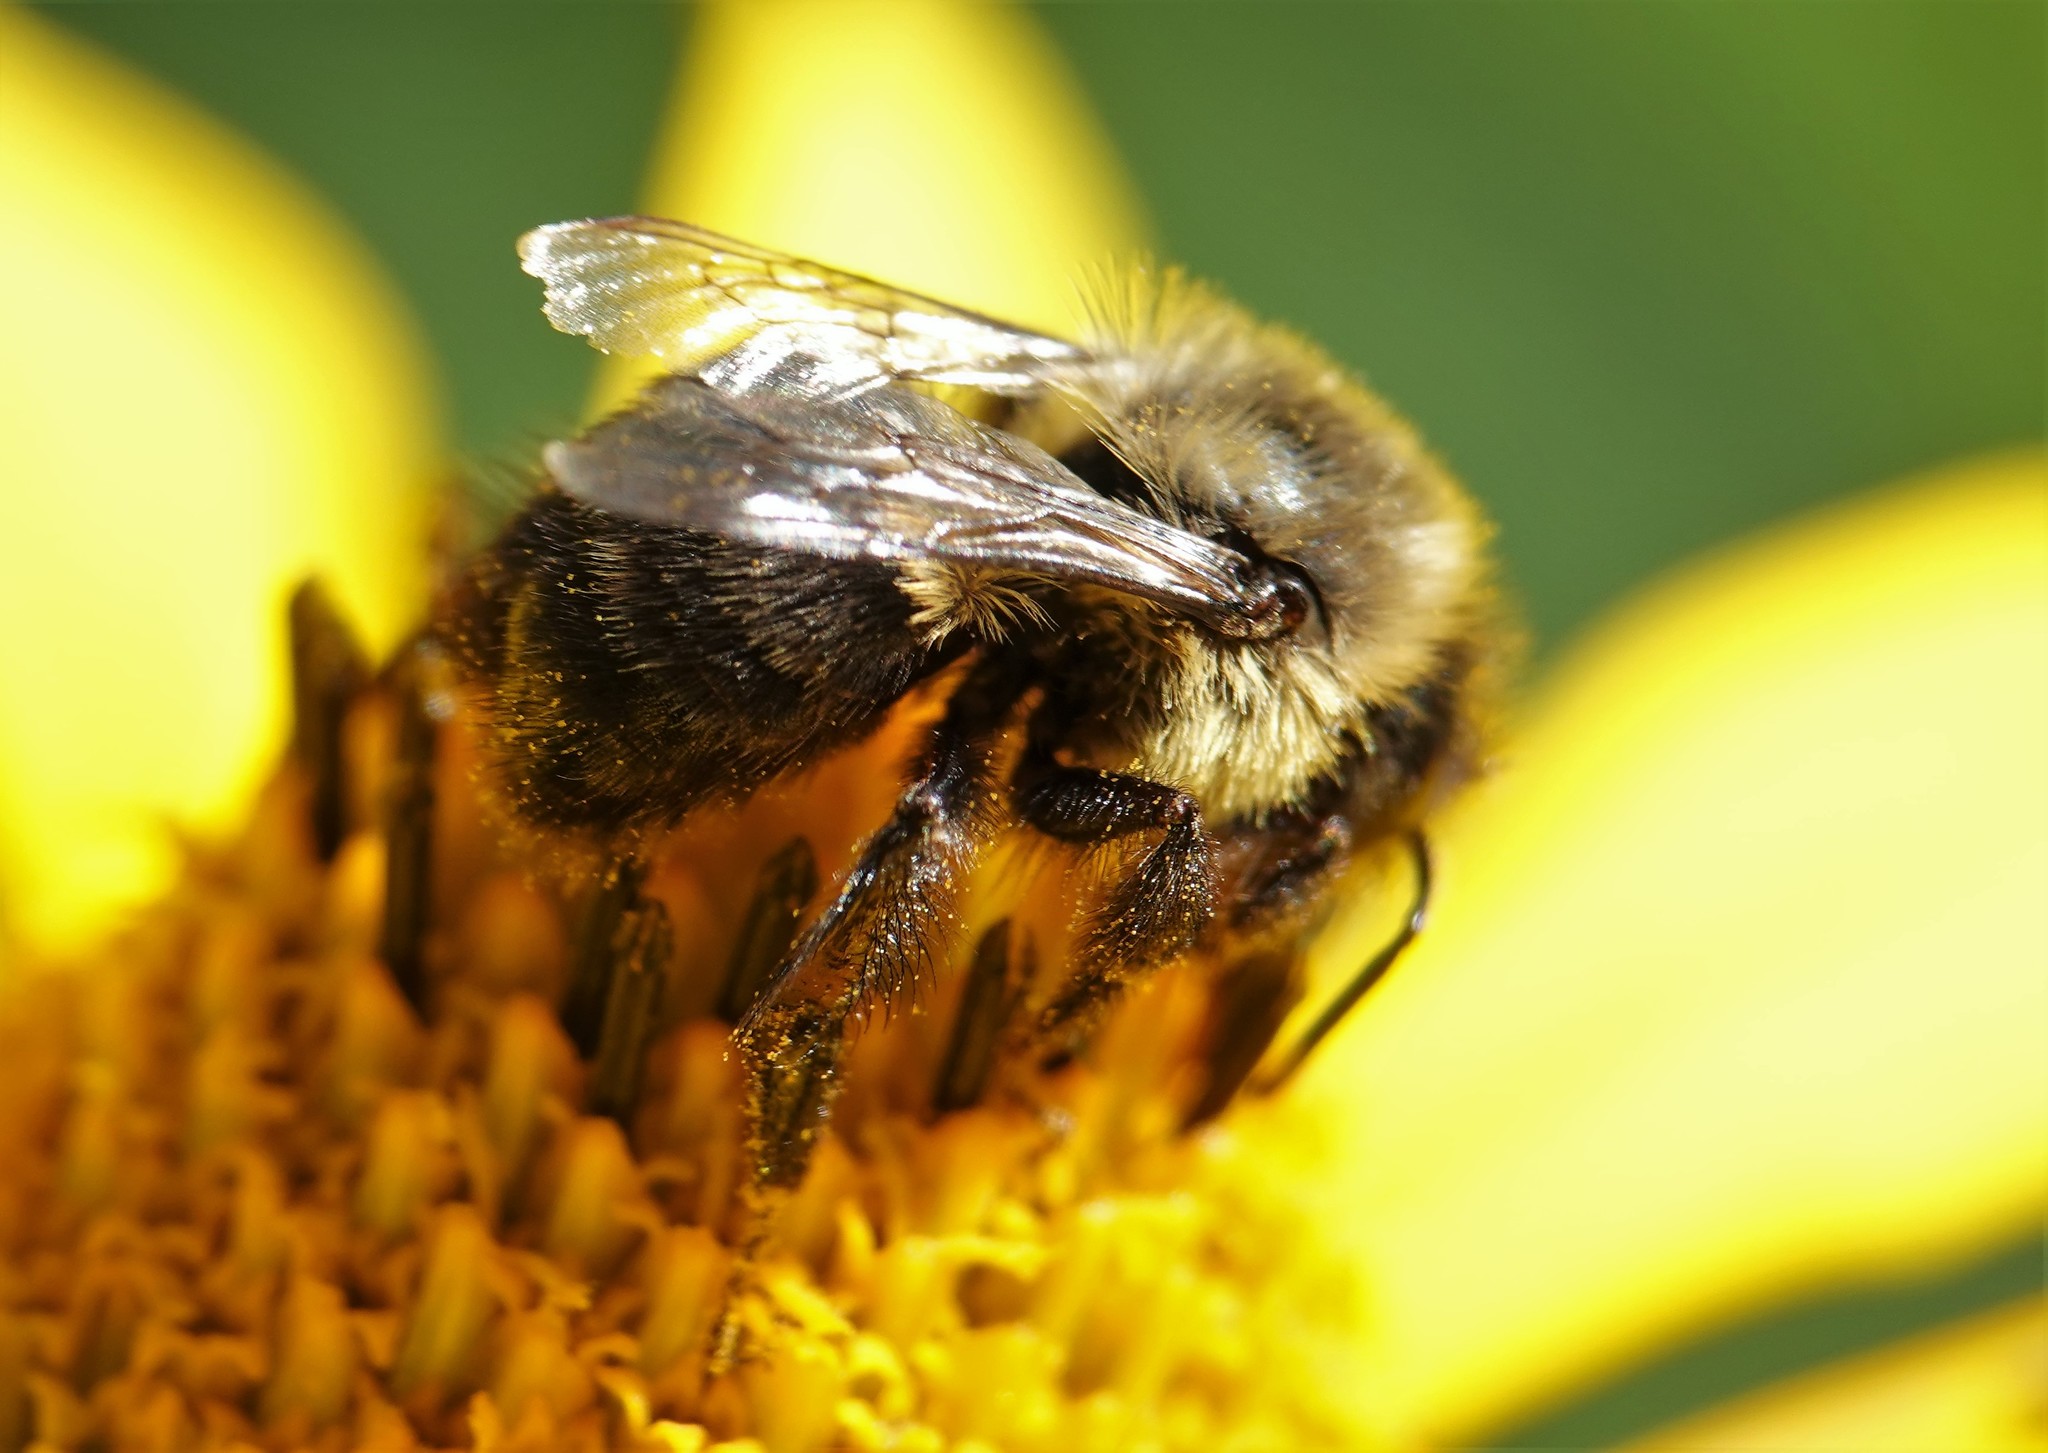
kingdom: Animalia
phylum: Arthropoda
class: Insecta
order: Hymenoptera
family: Apidae
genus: Bombus
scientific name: Bombus impatiens
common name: Common eastern bumble bee
